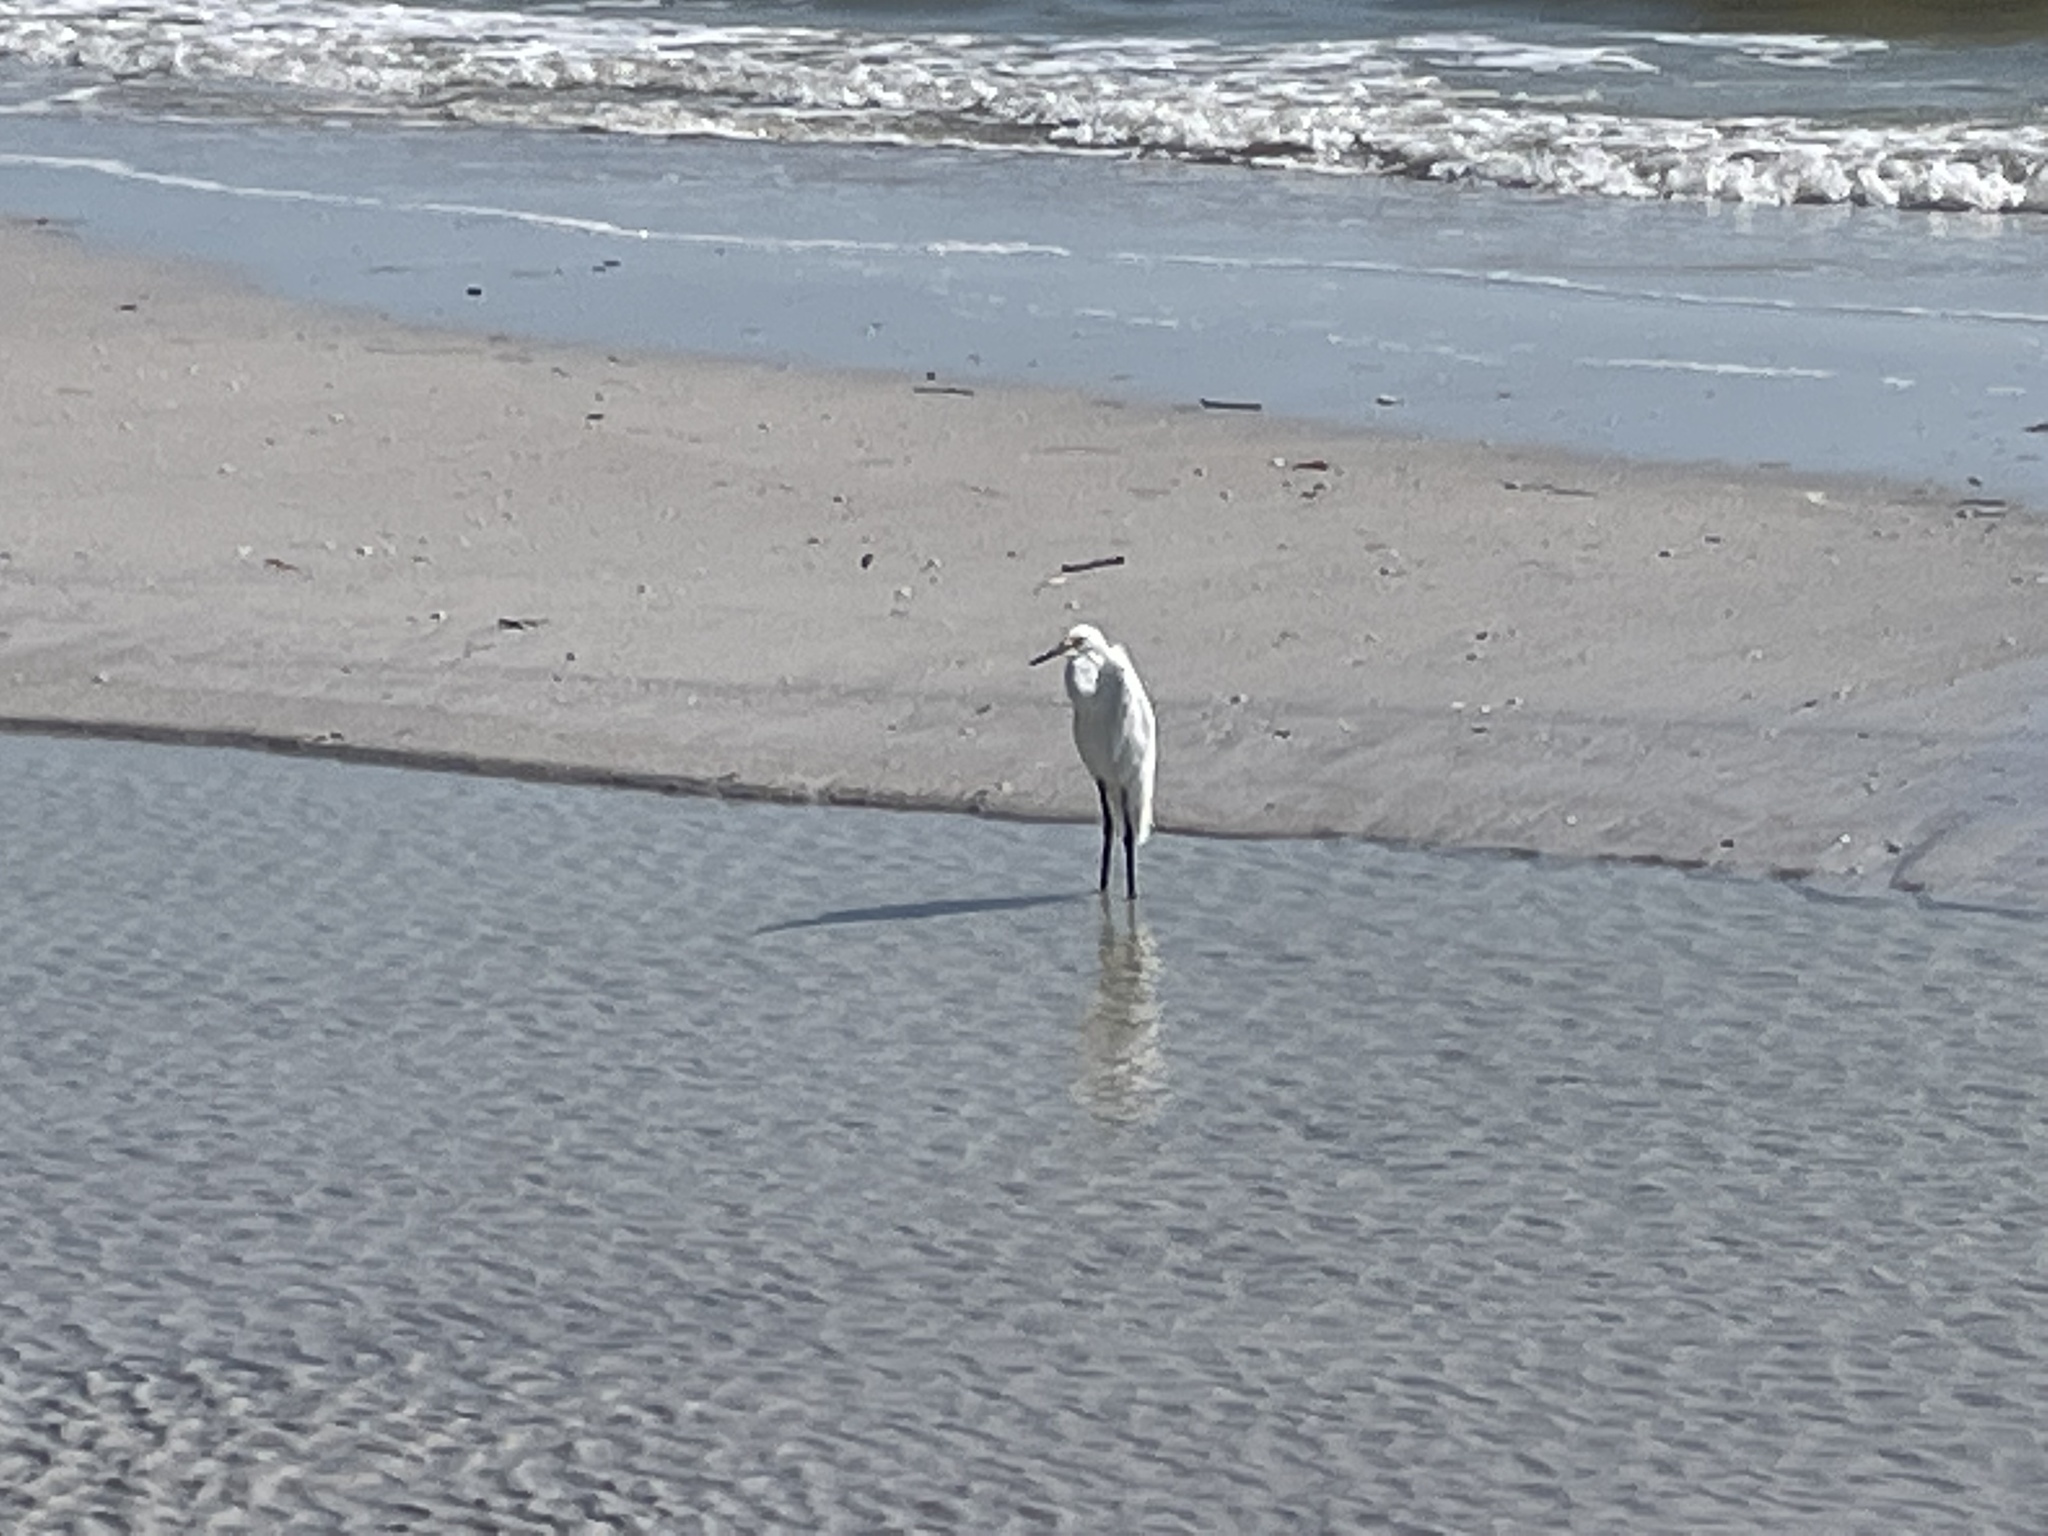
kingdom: Animalia
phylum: Chordata
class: Aves
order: Pelecaniformes
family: Ardeidae
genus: Egretta
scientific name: Egretta thula
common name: Snowy egret
